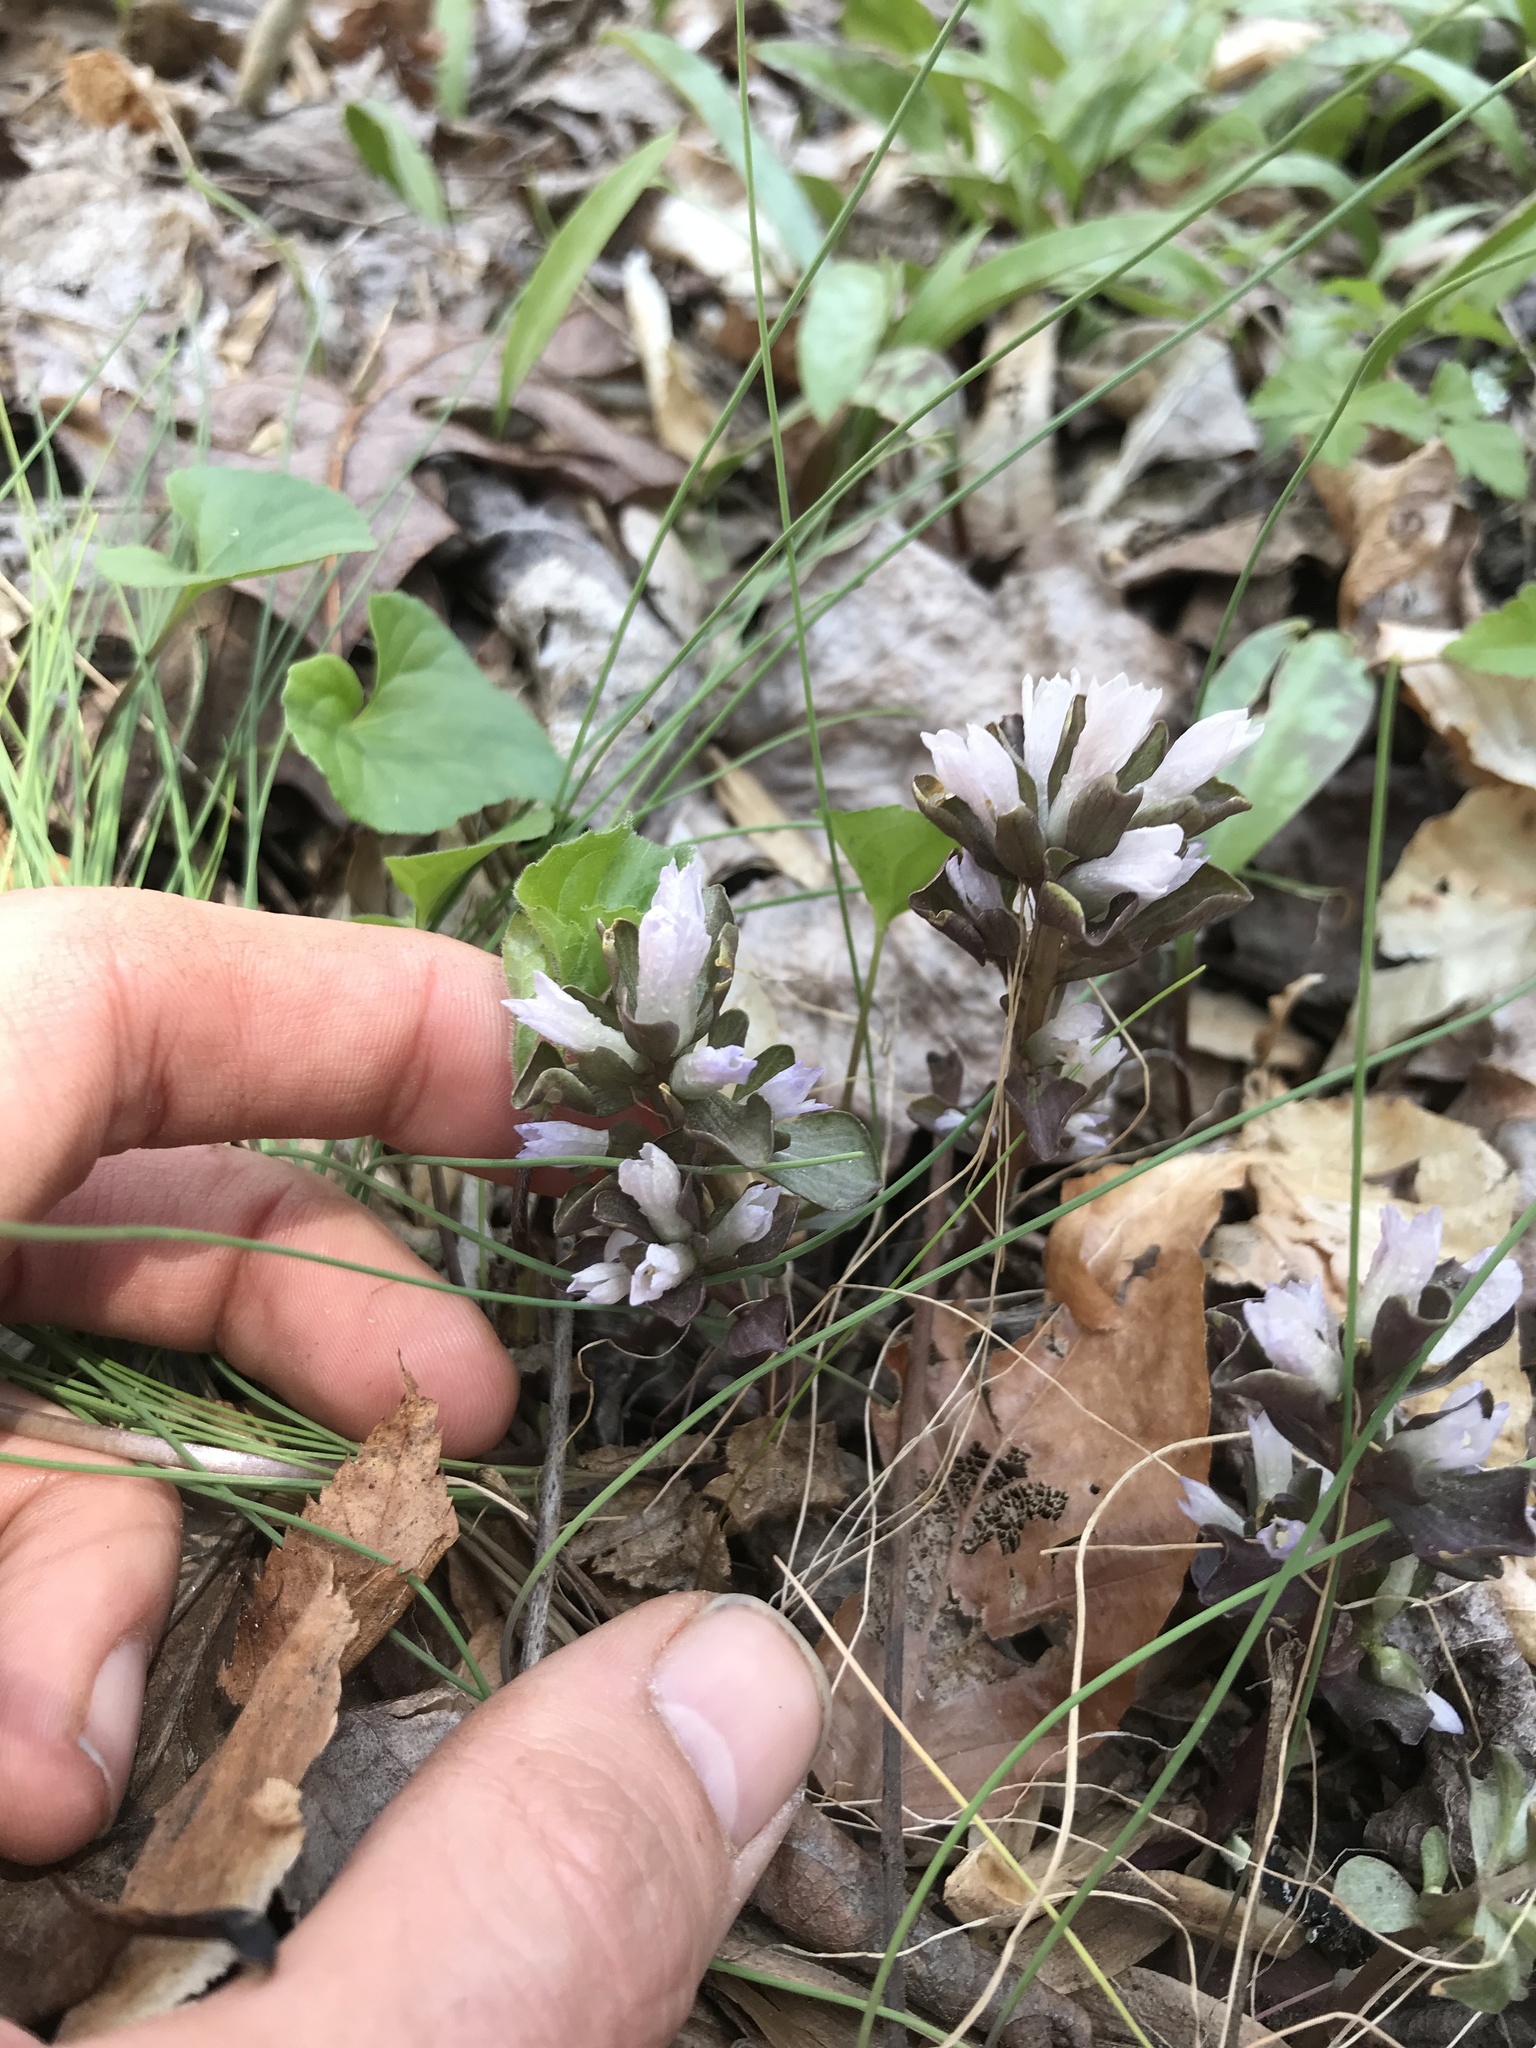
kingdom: Plantae
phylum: Tracheophyta
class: Magnoliopsida
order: Gentianales
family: Gentianaceae
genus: Obolaria
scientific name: Obolaria virginica
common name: Pennywort
